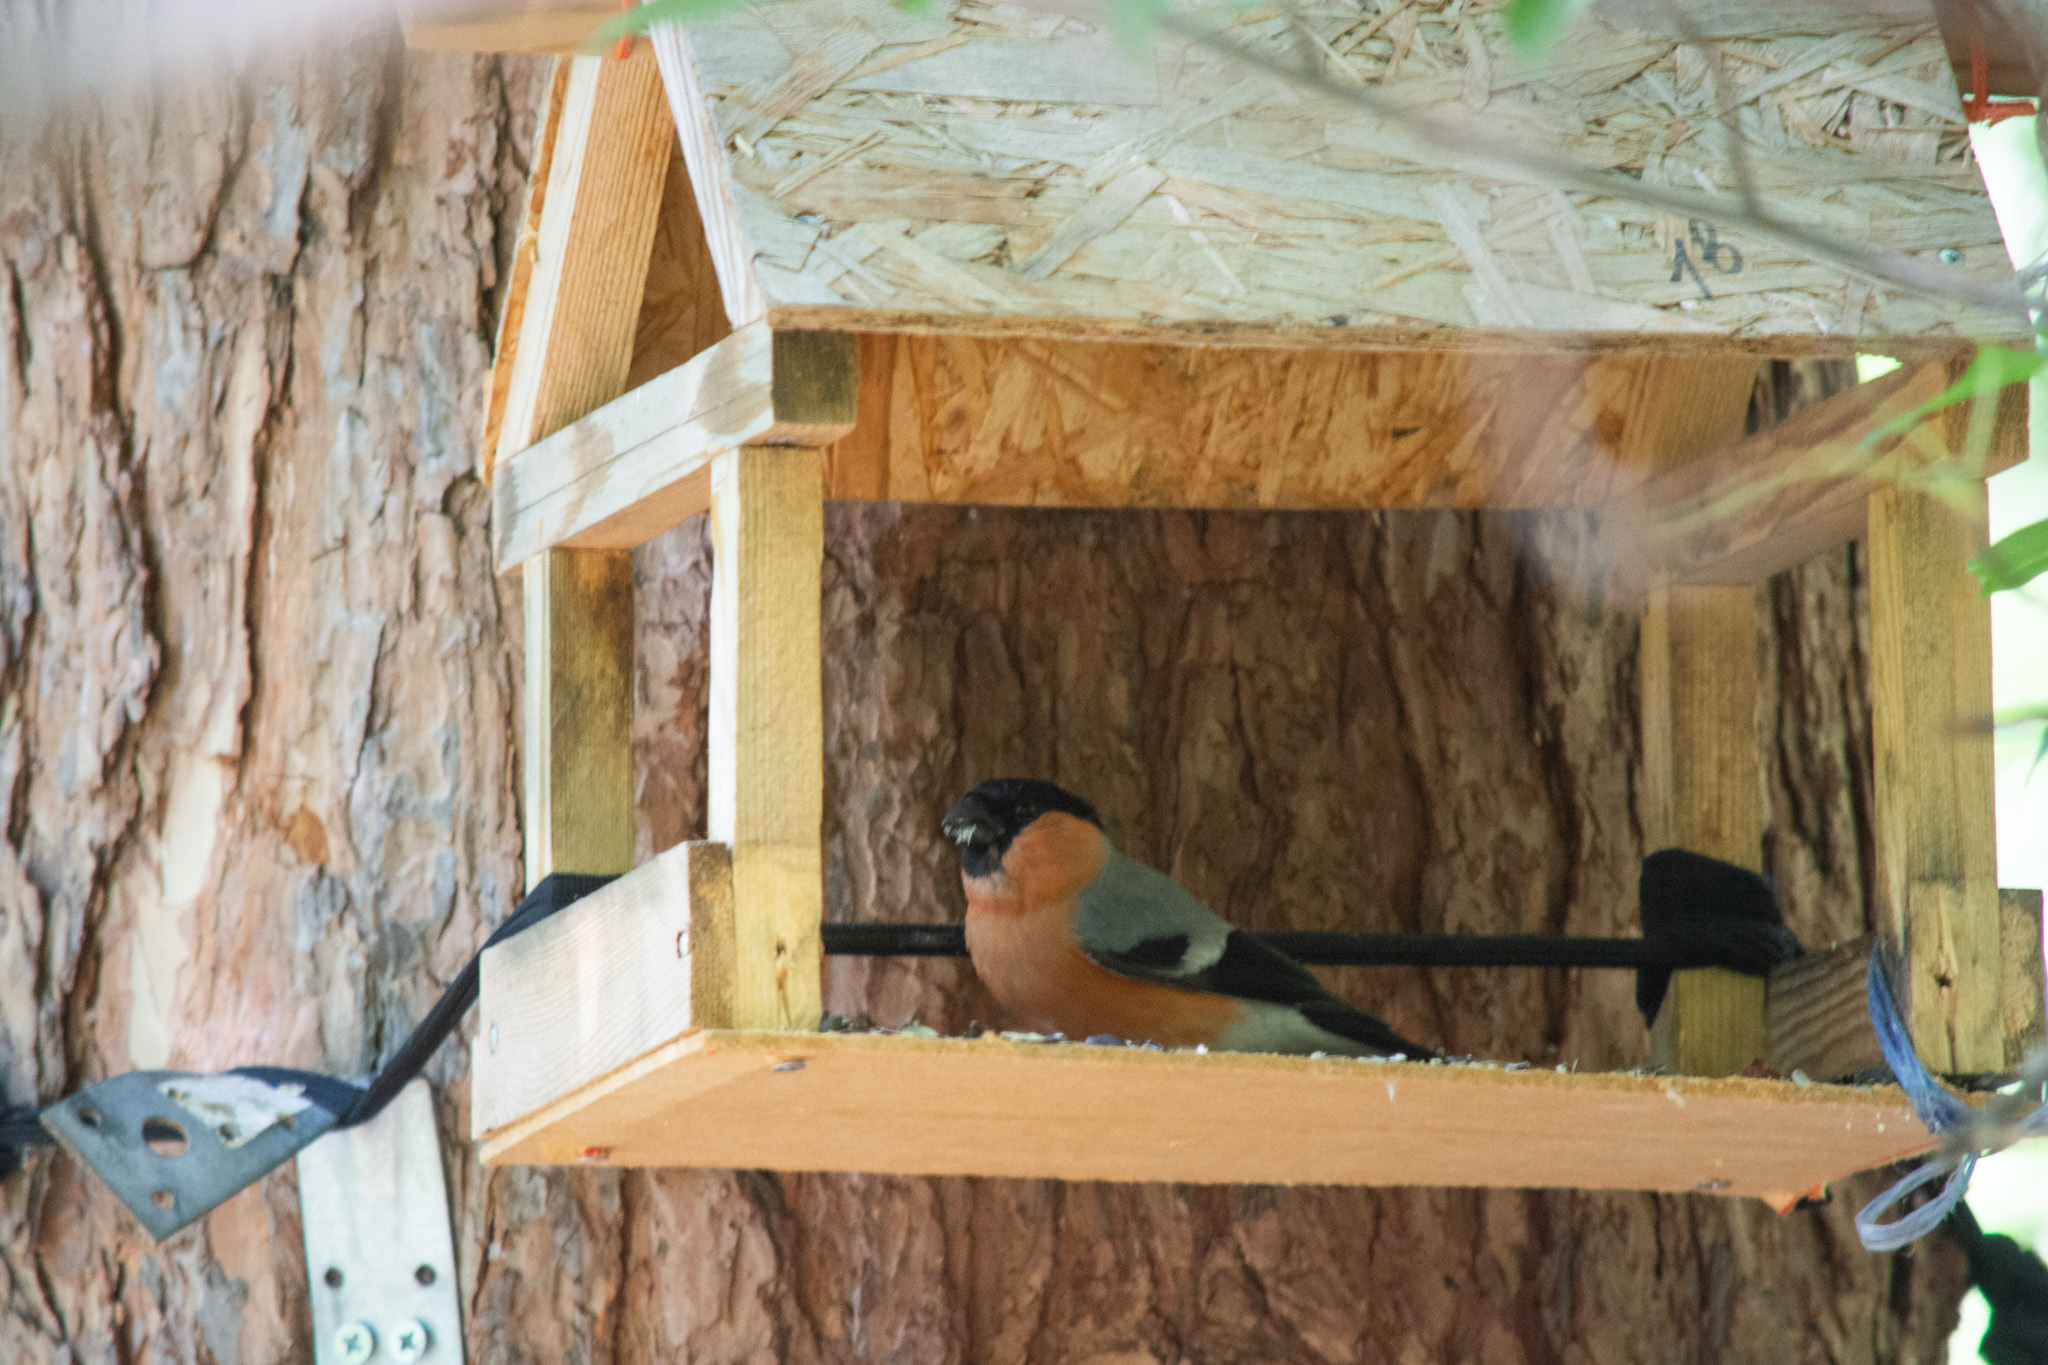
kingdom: Animalia
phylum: Chordata
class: Aves
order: Passeriformes
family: Fringillidae
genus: Pyrrhula
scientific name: Pyrrhula pyrrhula
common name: Eurasian bullfinch
